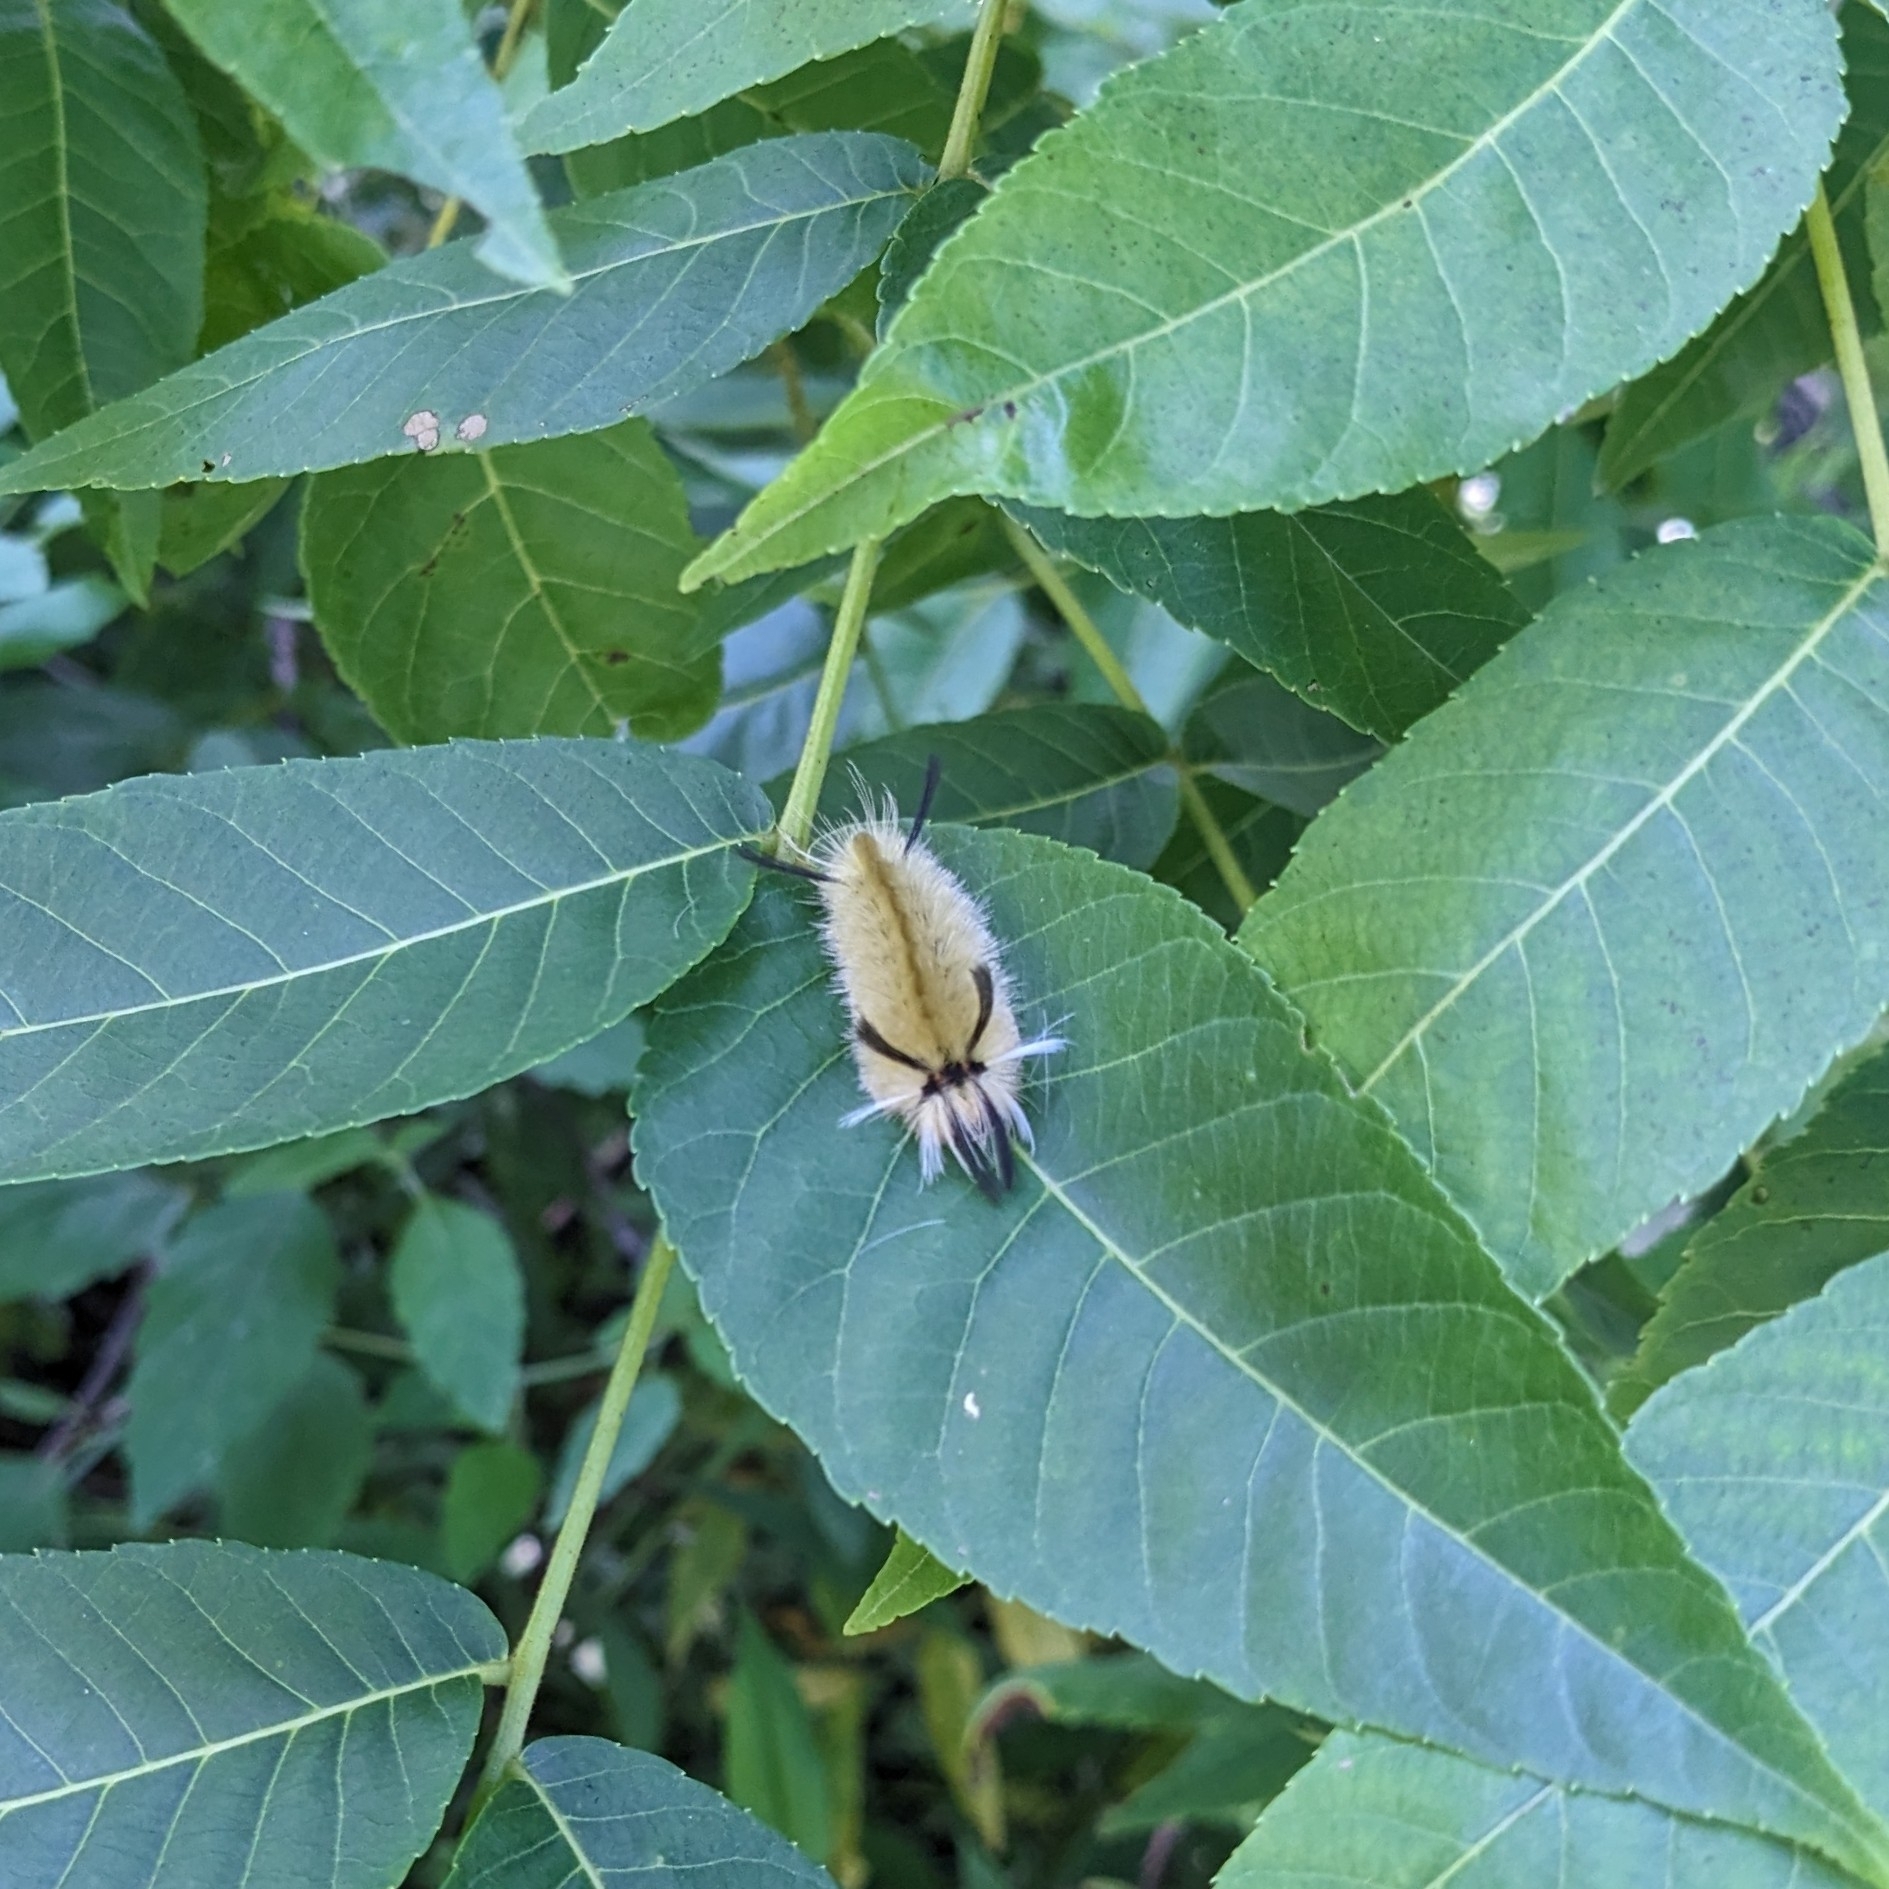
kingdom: Animalia
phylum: Arthropoda
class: Insecta
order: Lepidoptera
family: Erebidae
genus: Halysidota
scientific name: Halysidota tessellaris
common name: Banded tussock moth
